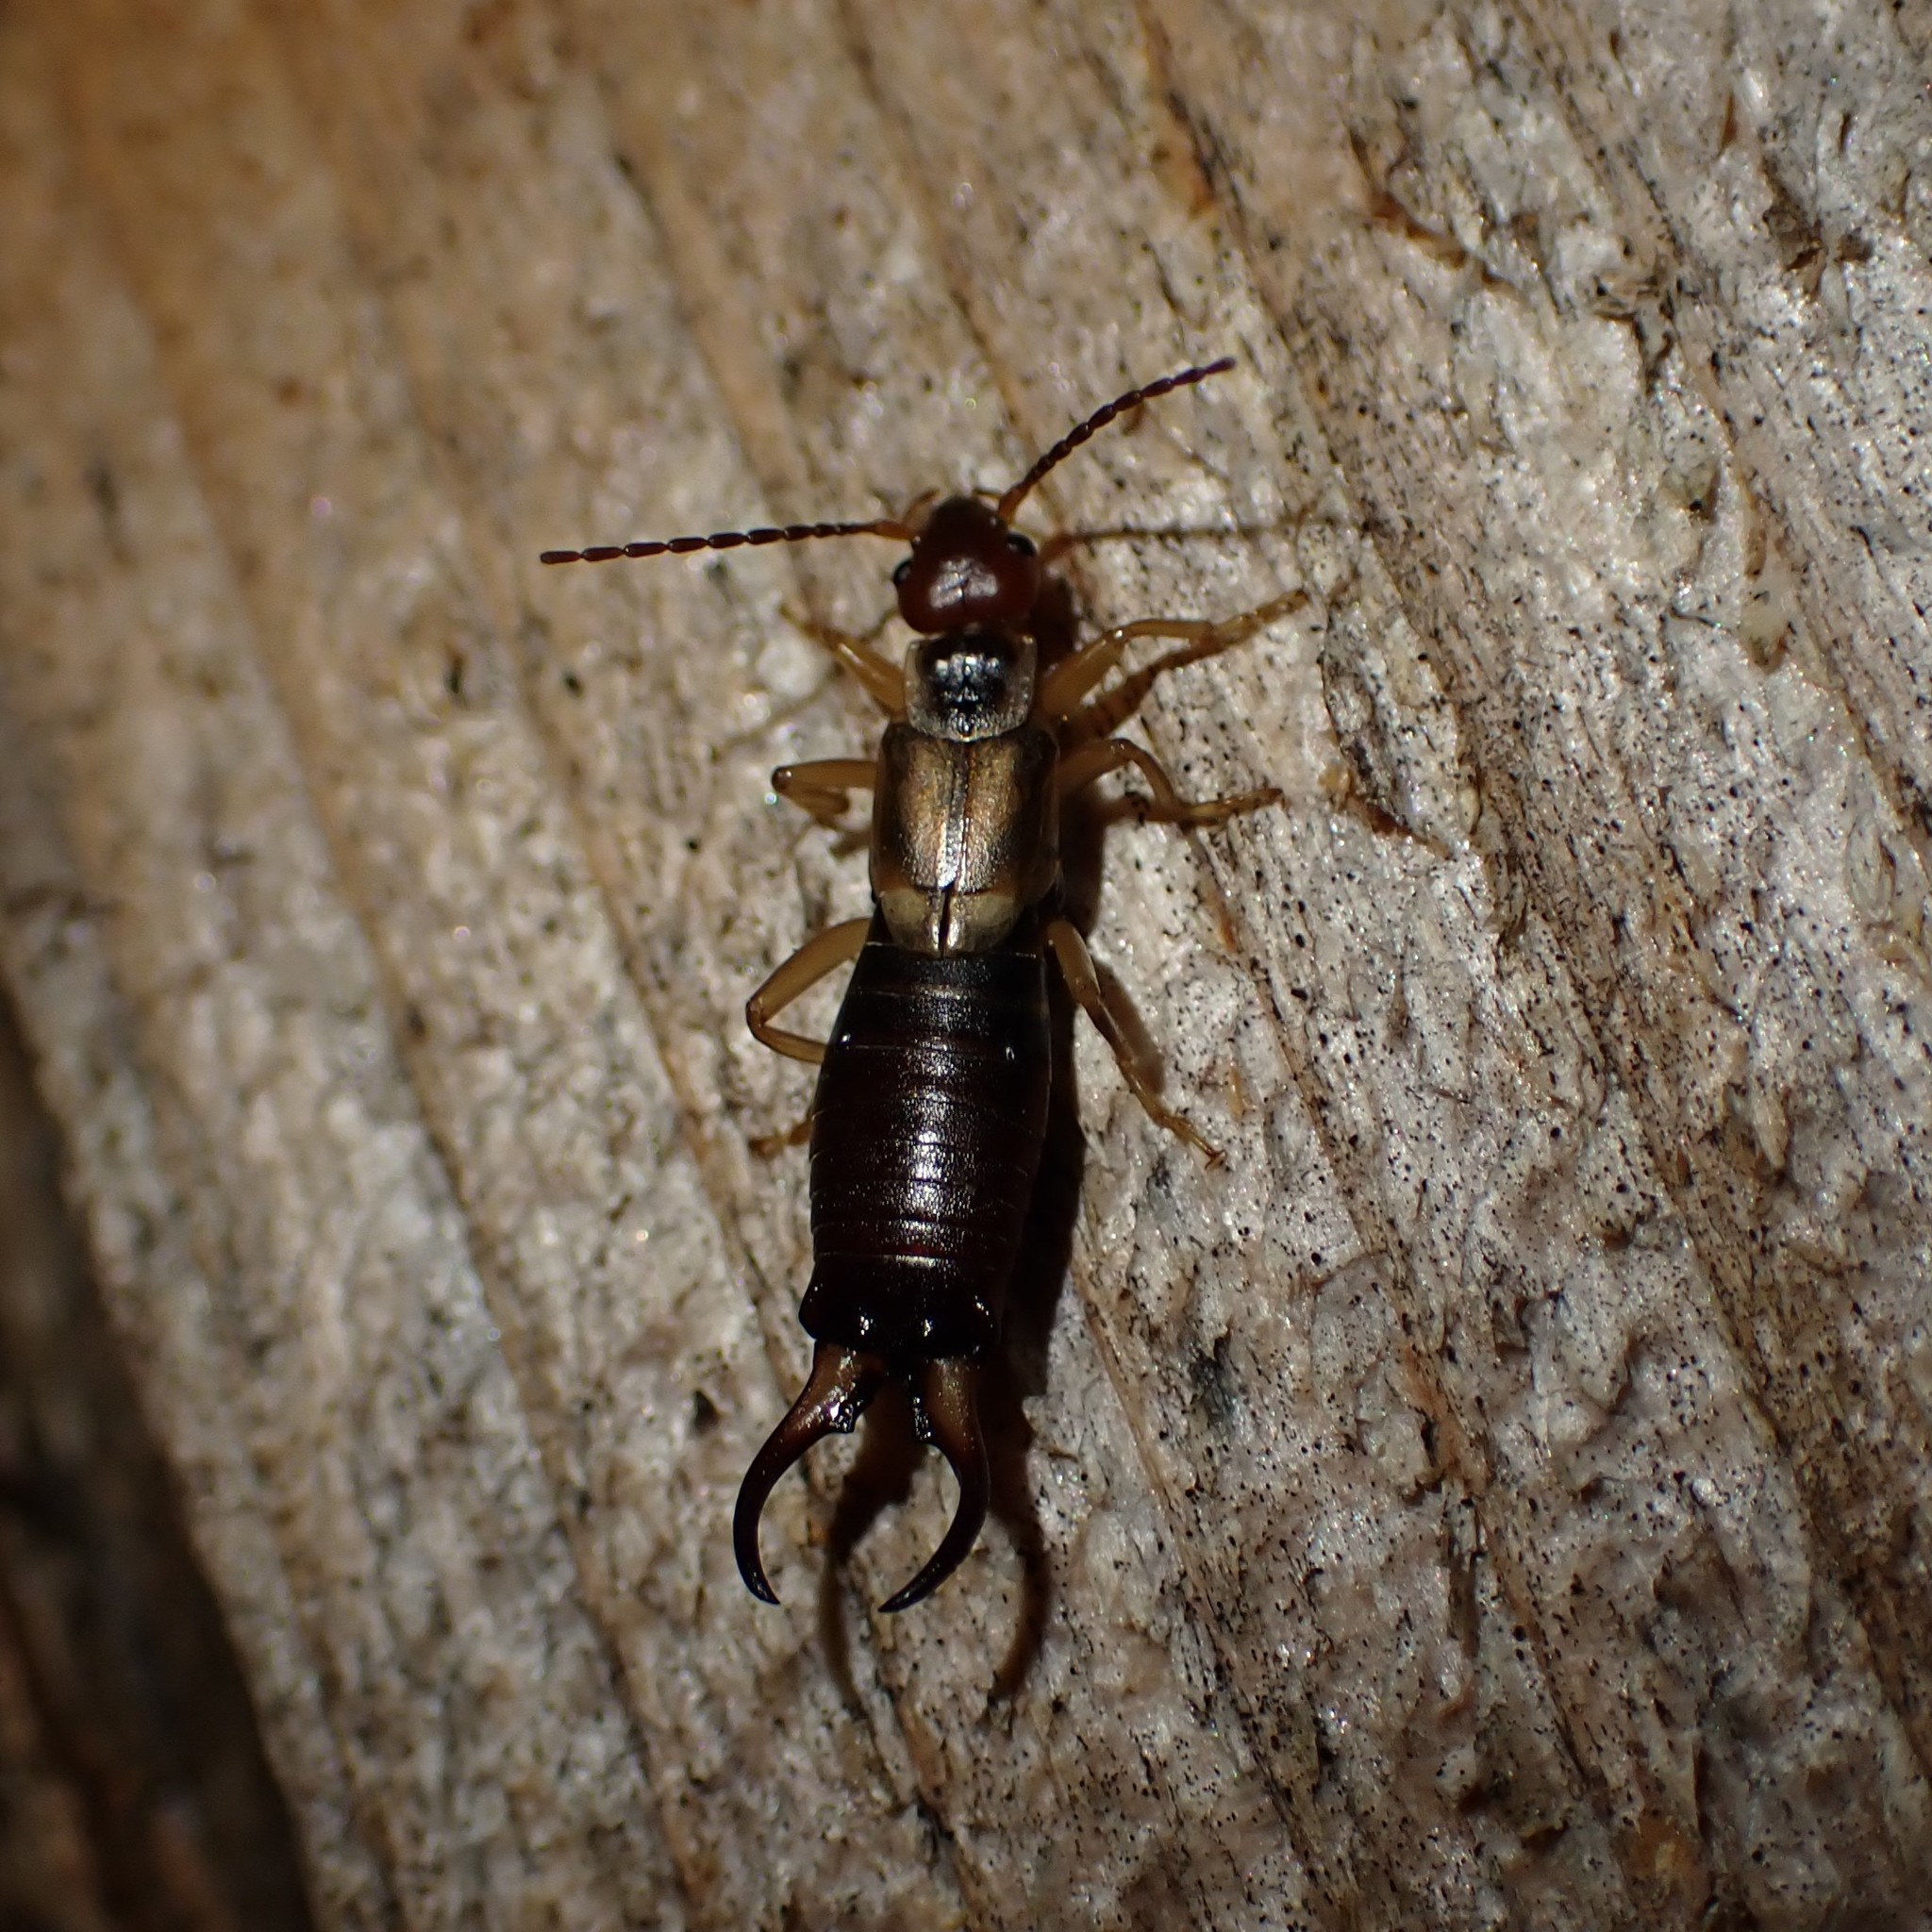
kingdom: Animalia
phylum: Arthropoda
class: Insecta
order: Dermaptera
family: Forficulidae
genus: Forficula
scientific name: Forficula
